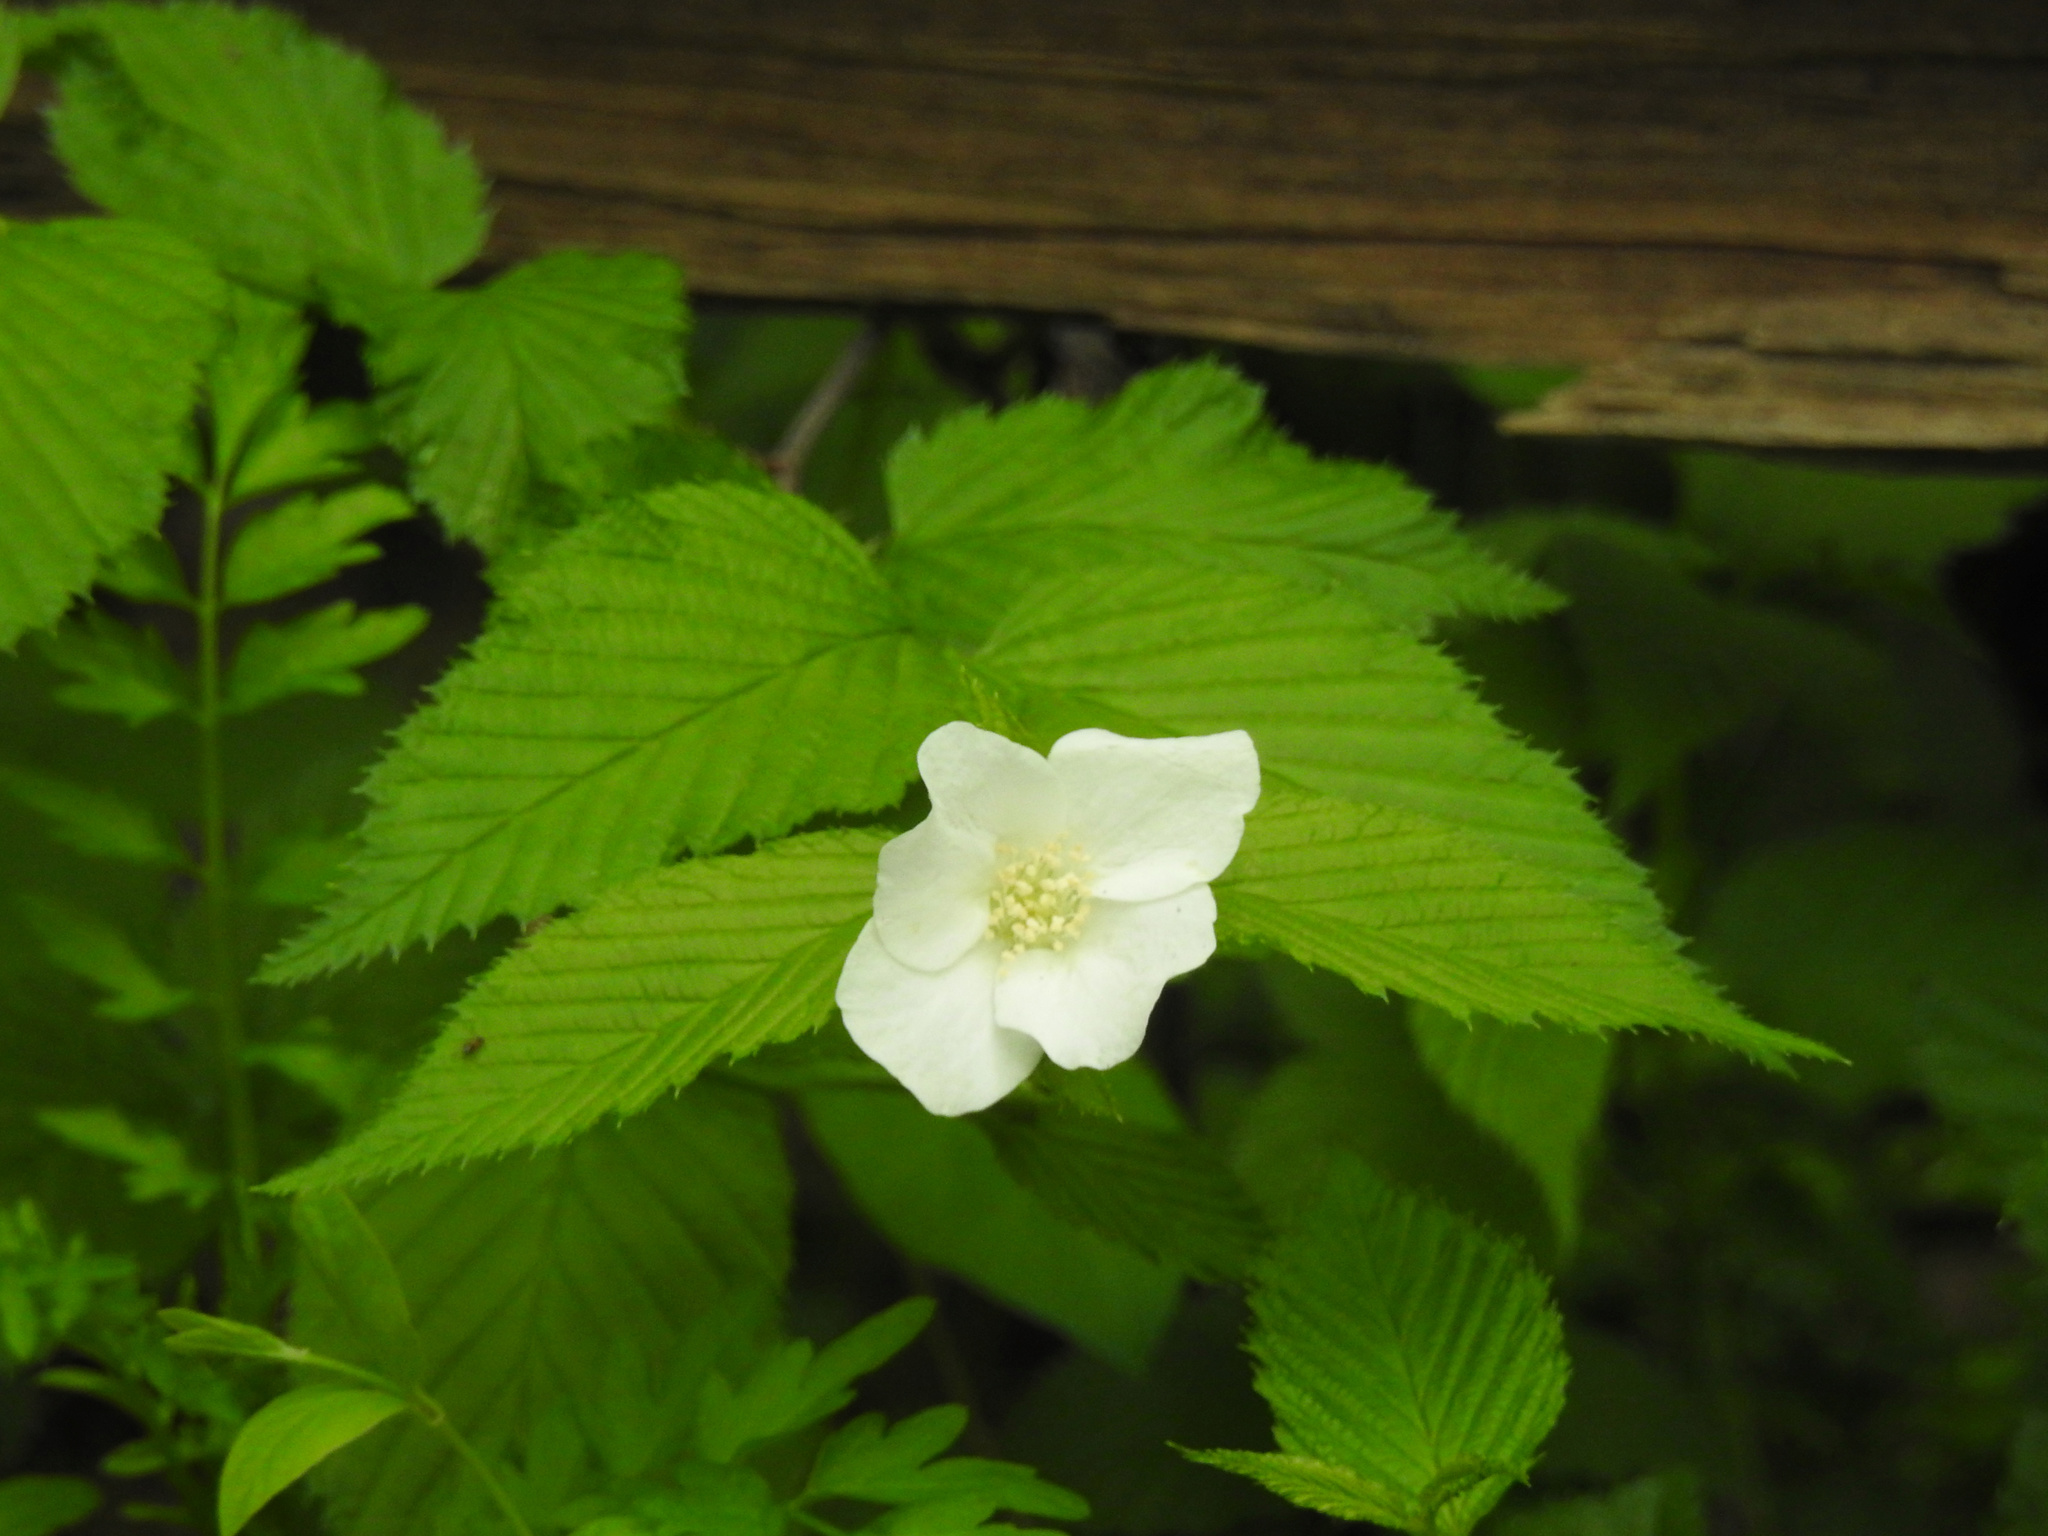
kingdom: Plantae
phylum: Tracheophyta
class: Magnoliopsida
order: Rosales
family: Rosaceae
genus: Rhodotypos
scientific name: Rhodotypos scandens
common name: Jetbead
